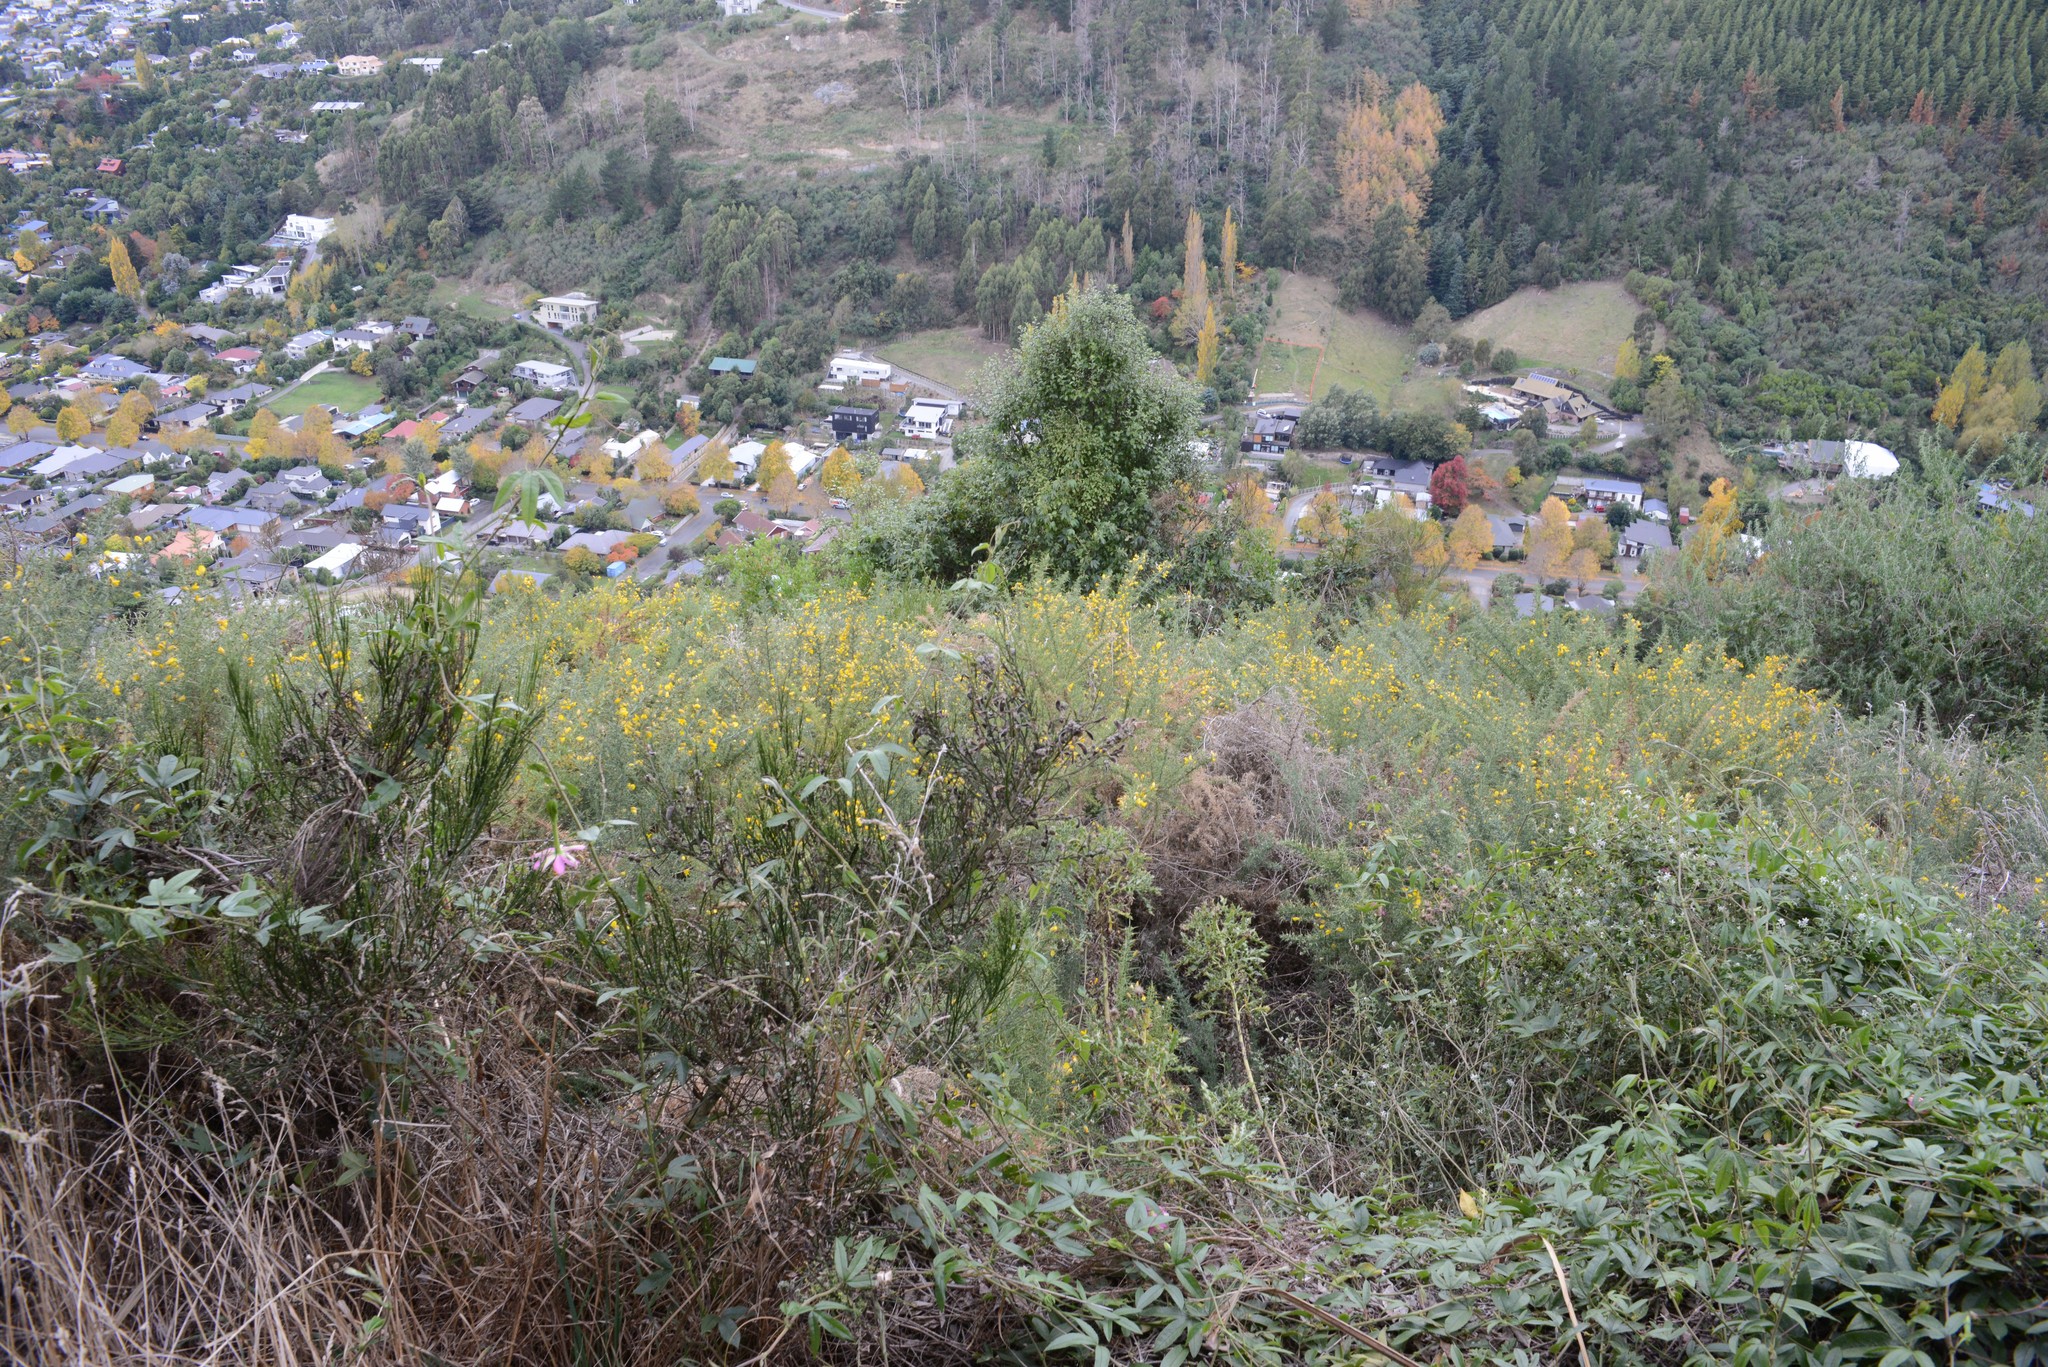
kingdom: Plantae
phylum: Tracheophyta
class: Magnoliopsida
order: Fabales
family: Fabaceae
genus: Ulex
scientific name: Ulex europaeus
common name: Common gorse
